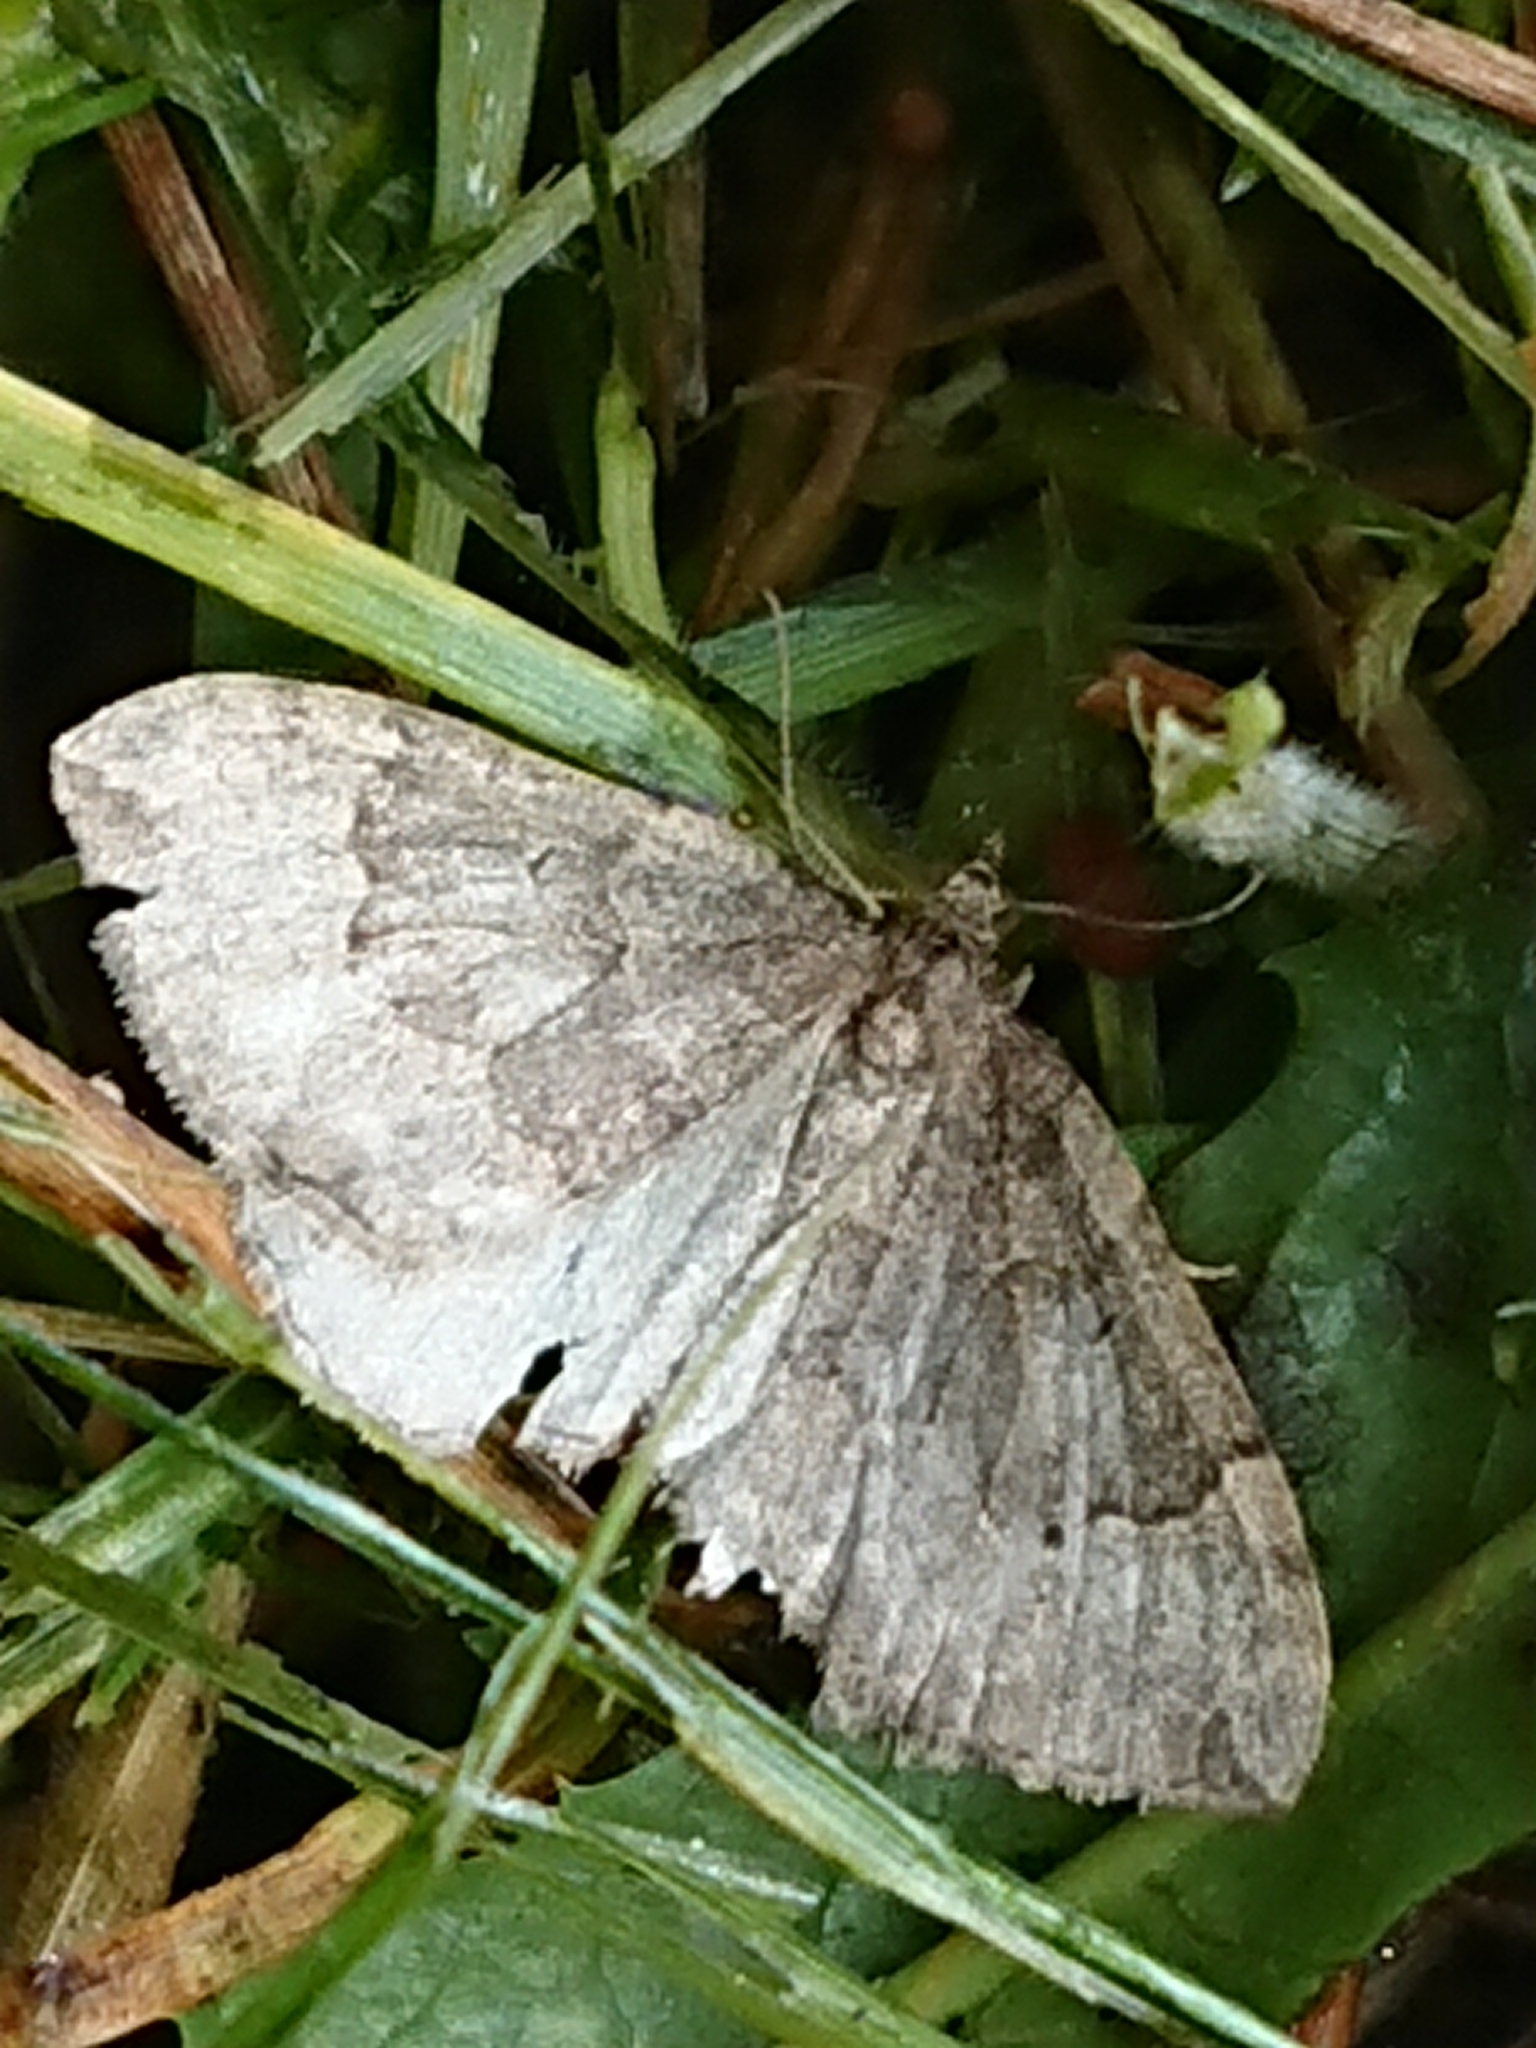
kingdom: Animalia
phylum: Arthropoda
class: Insecta
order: Lepidoptera
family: Geometridae
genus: Epyaxa
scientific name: Epyaxa rosearia
